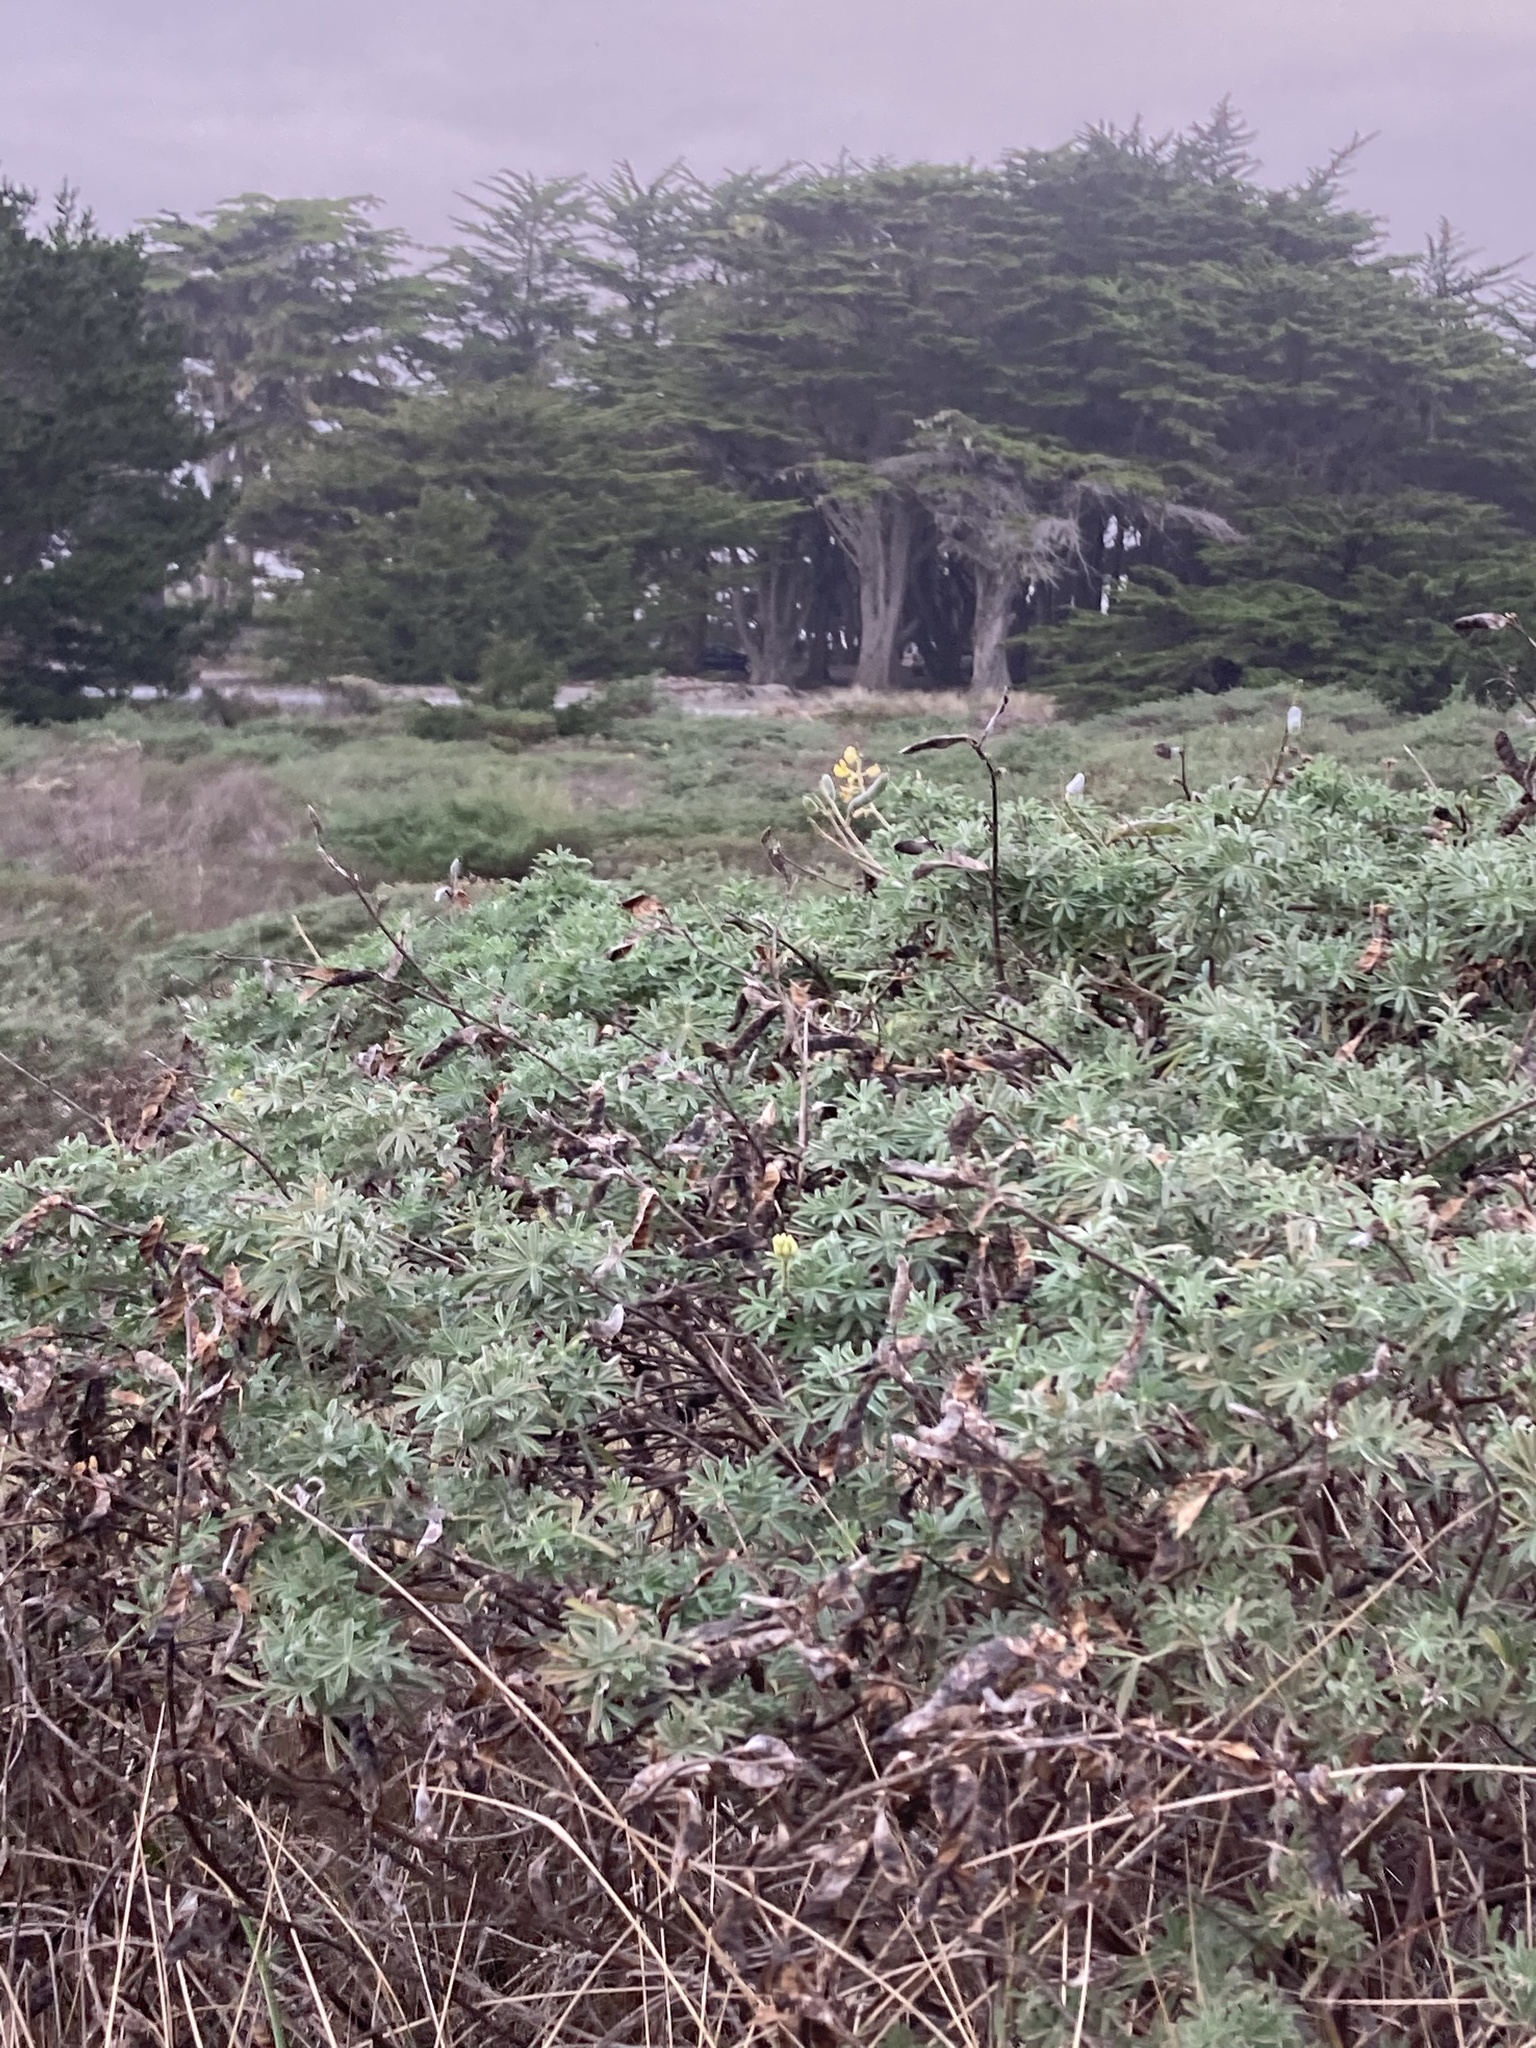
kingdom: Plantae
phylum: Tracheophyta
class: Magnoliopsida
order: Fabales
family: Fabaceae
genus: Lupinus
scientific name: Lupinus arboreus
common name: Yellow bush lupine
